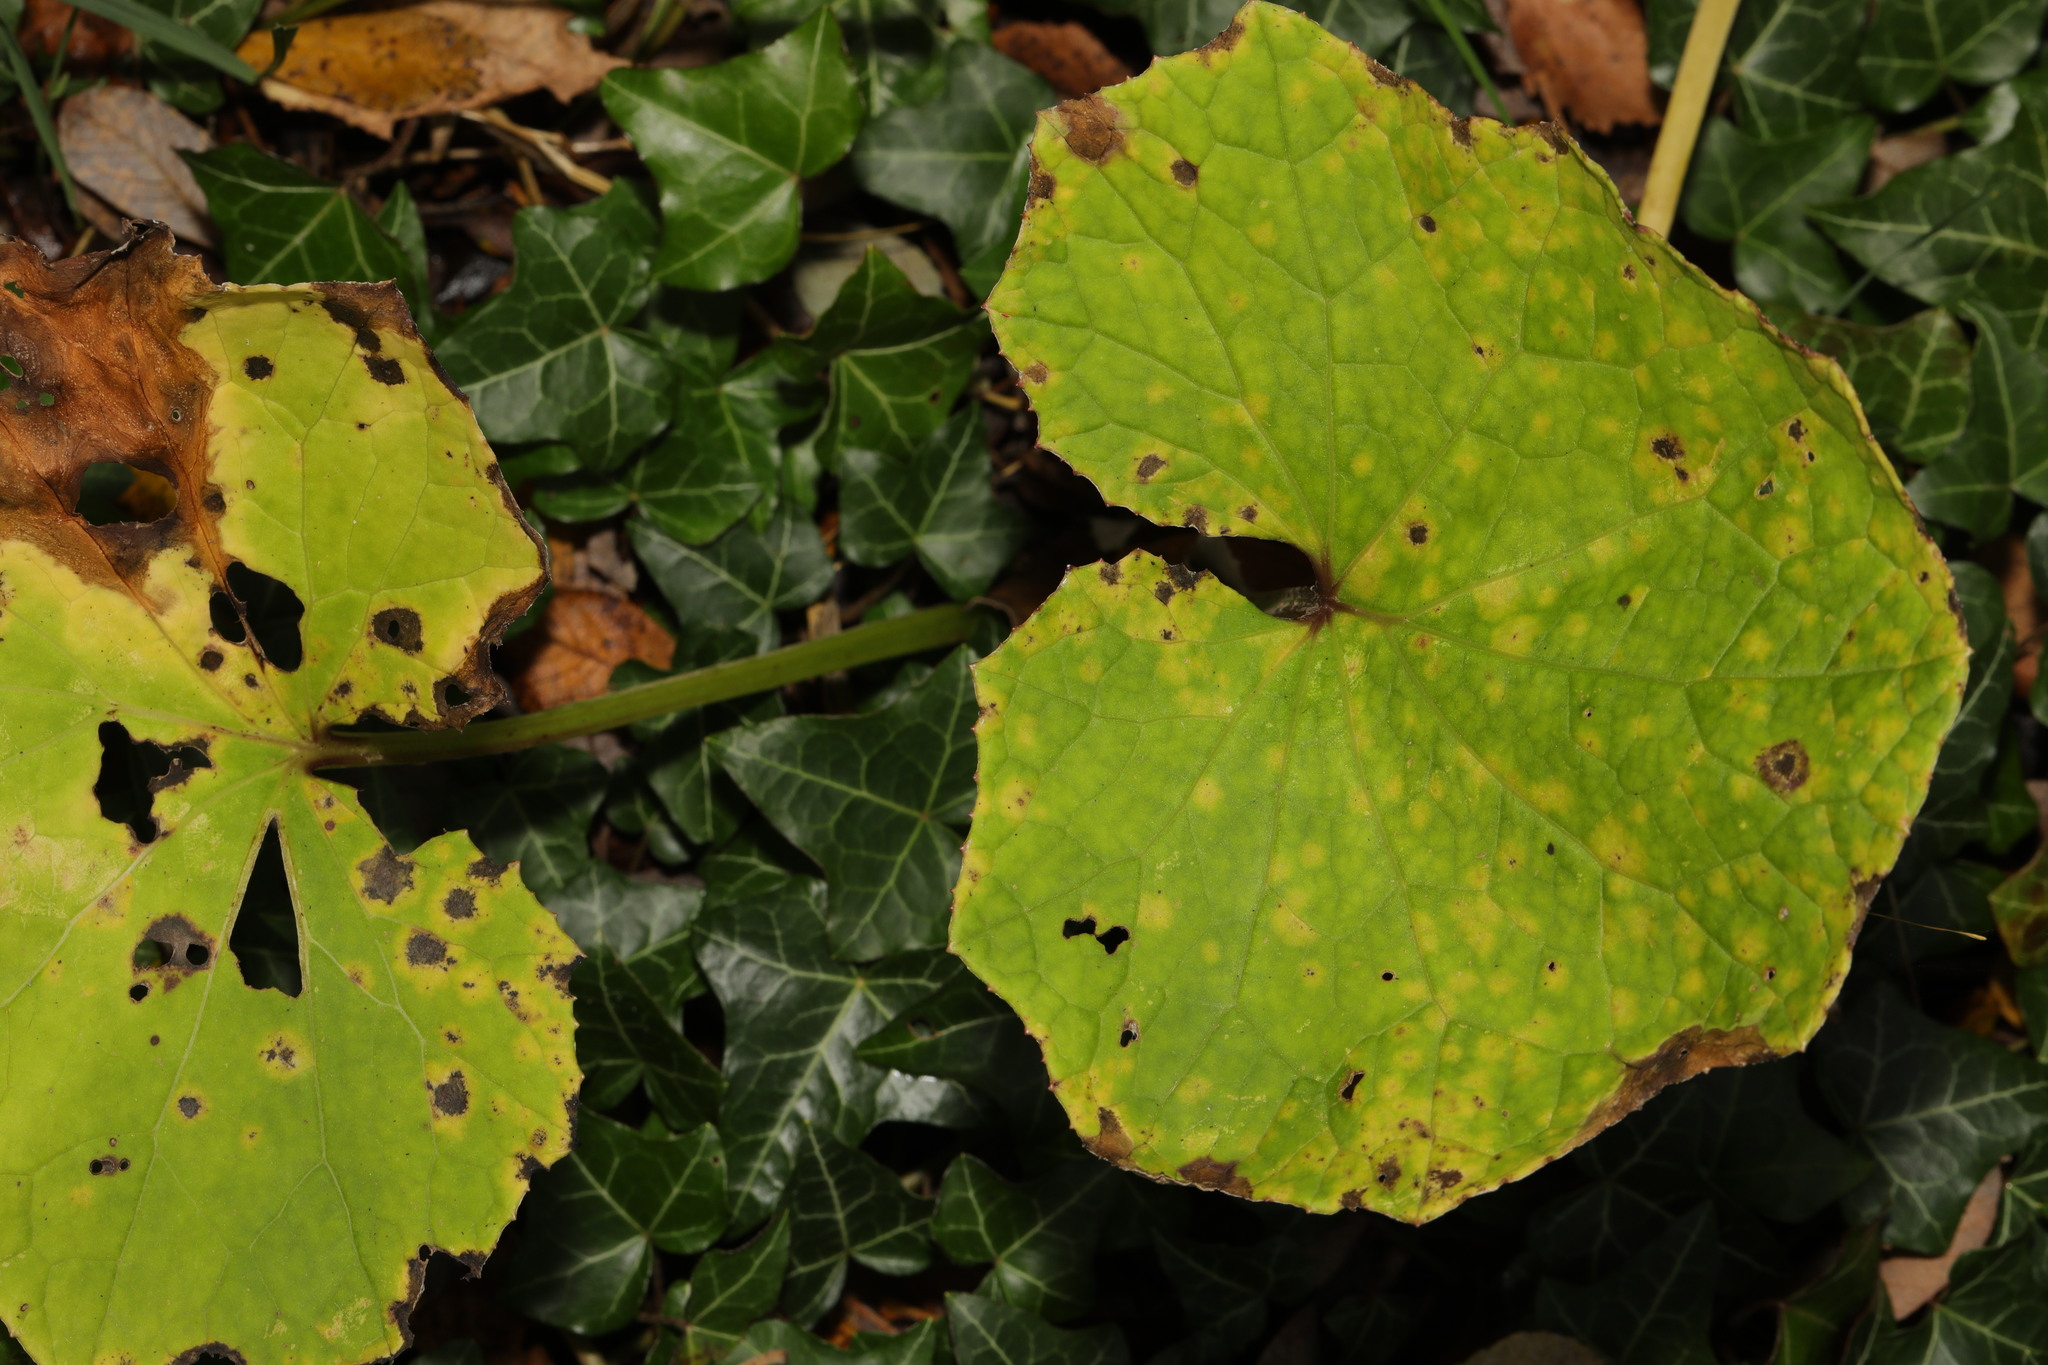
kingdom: Plantae
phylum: Tracheophyta
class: Magnoliopsida
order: Asterales
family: Asteraceae
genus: Tussilago
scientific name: Tussilago farfara
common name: Coltsfoot
